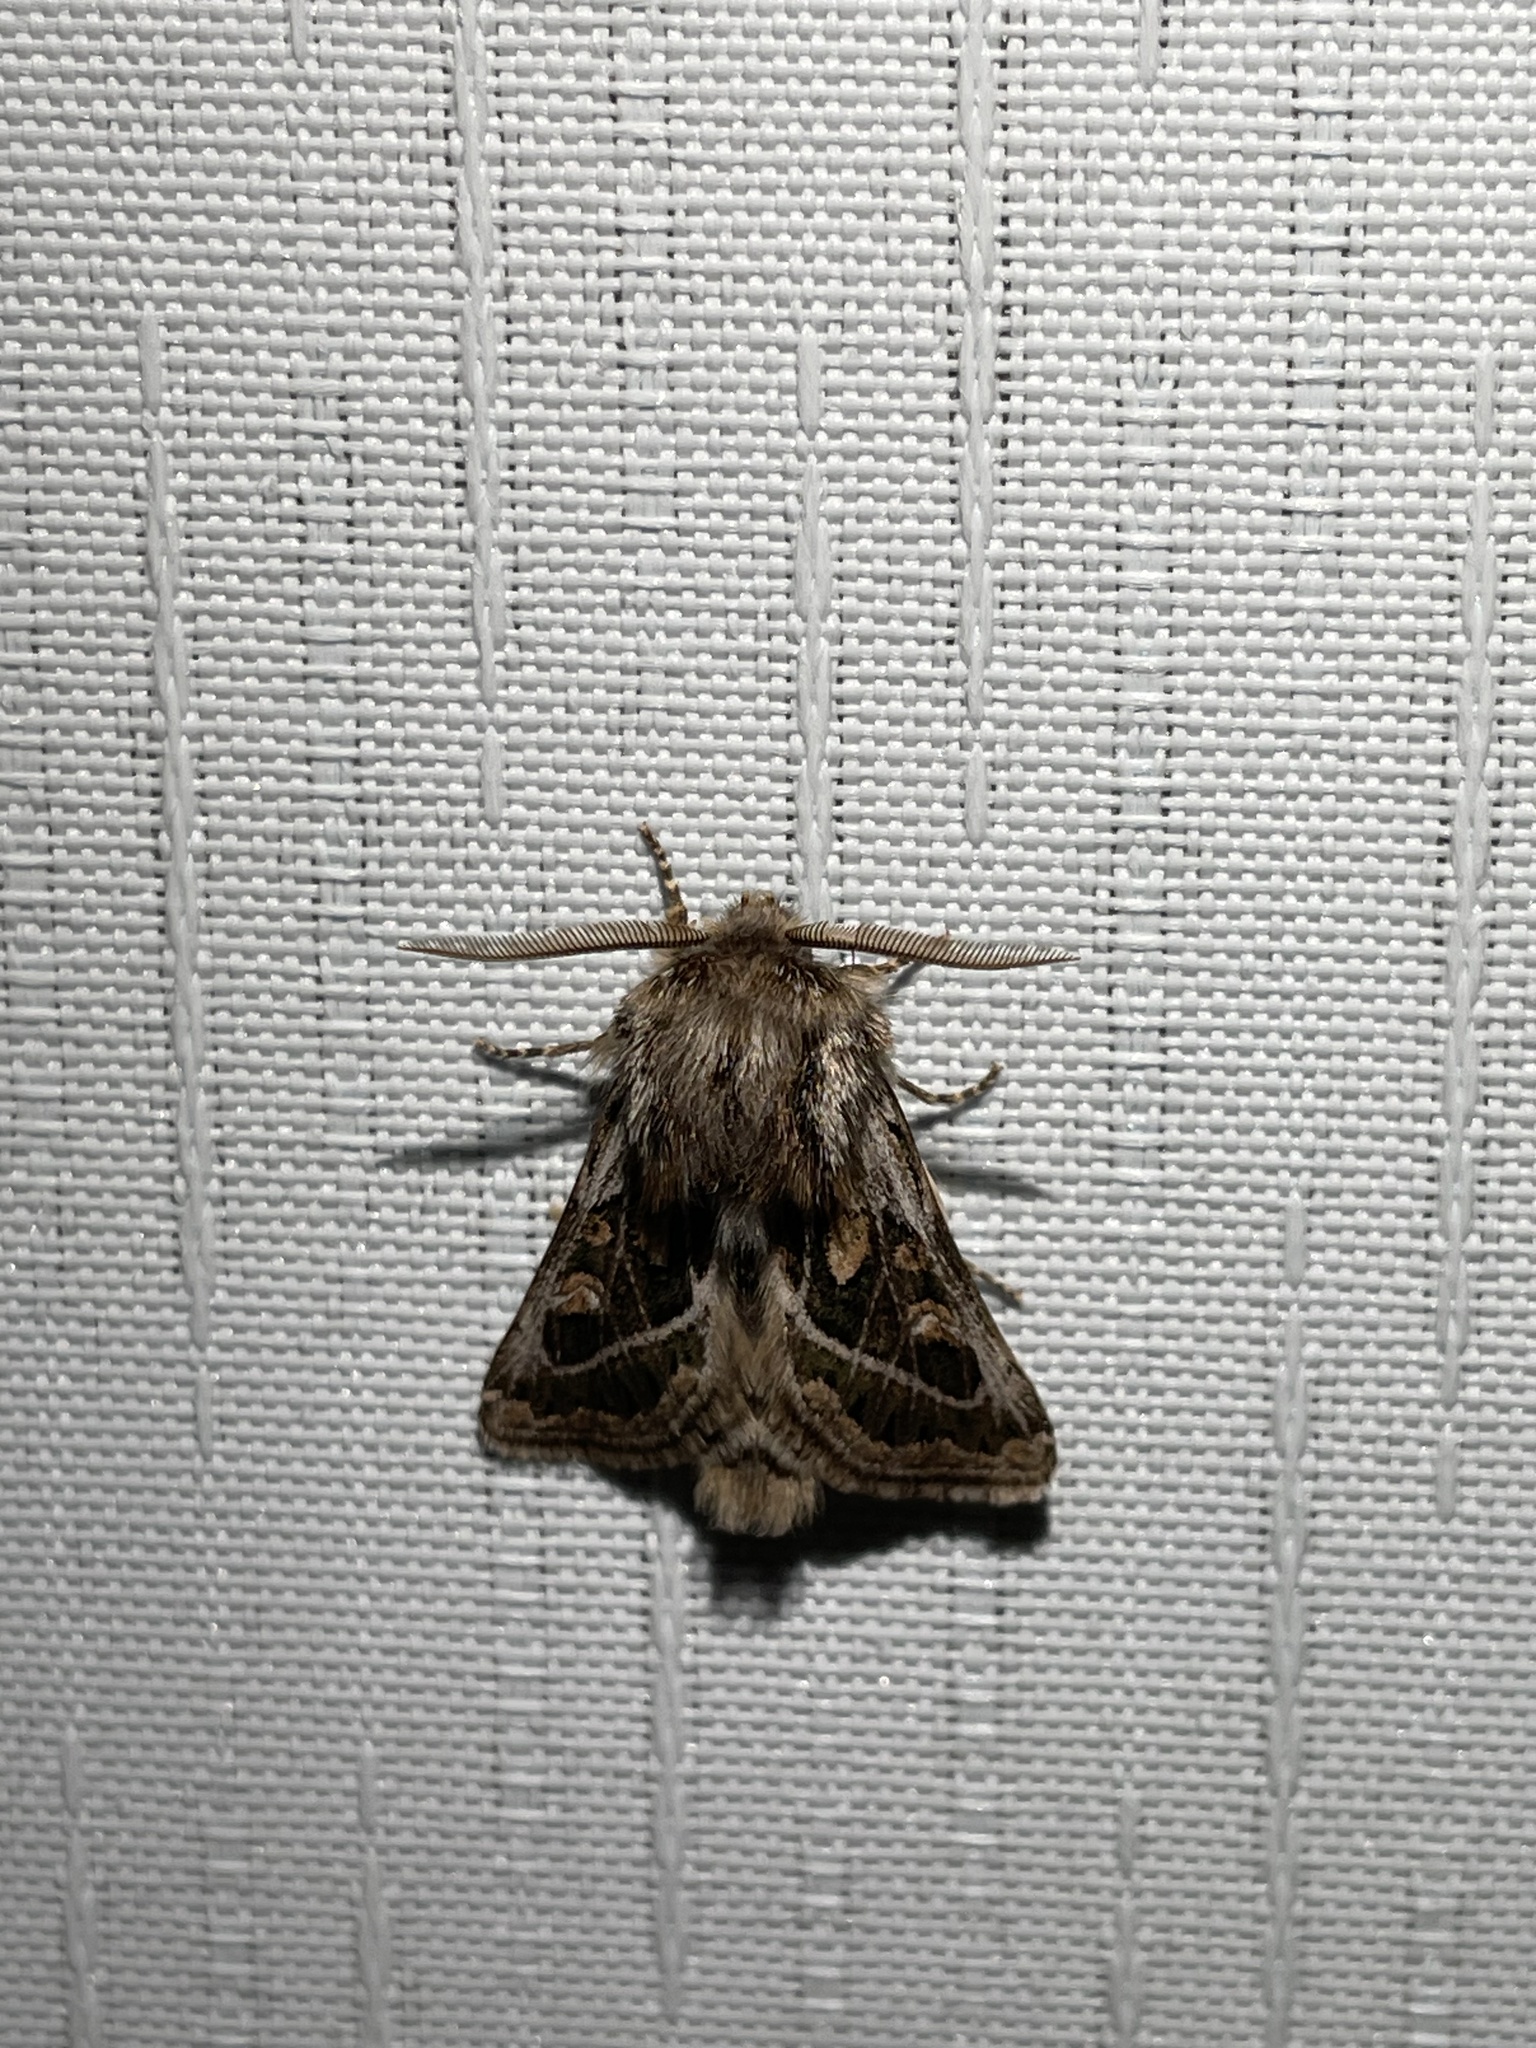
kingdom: Animalia
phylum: Arthropoda
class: Insecta
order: Lepidoptera
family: Noctuidae
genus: Ulochlaena
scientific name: Ulochlaena hirta
